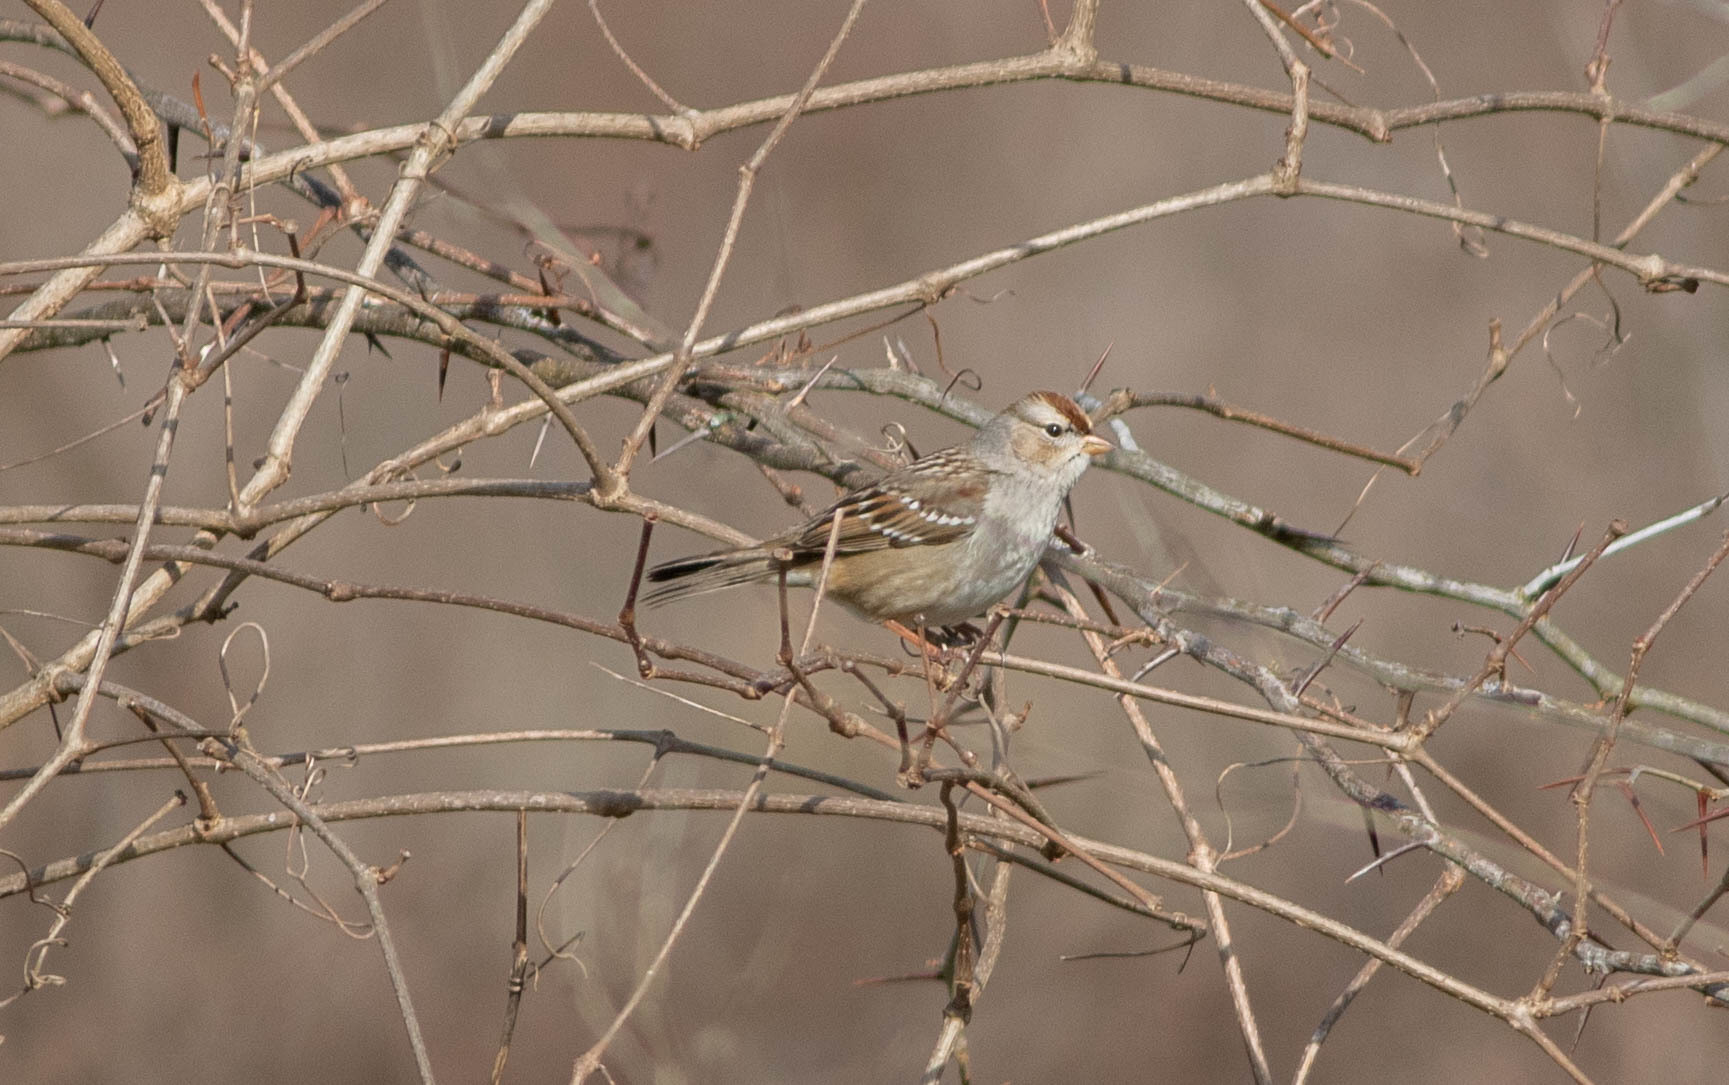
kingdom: Animalia
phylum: Chordata
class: Aves
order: Passeriformes
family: Passerellidae
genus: Zonotrichia
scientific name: Zonotrichia leucophrys
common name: White-crowned sparrow
